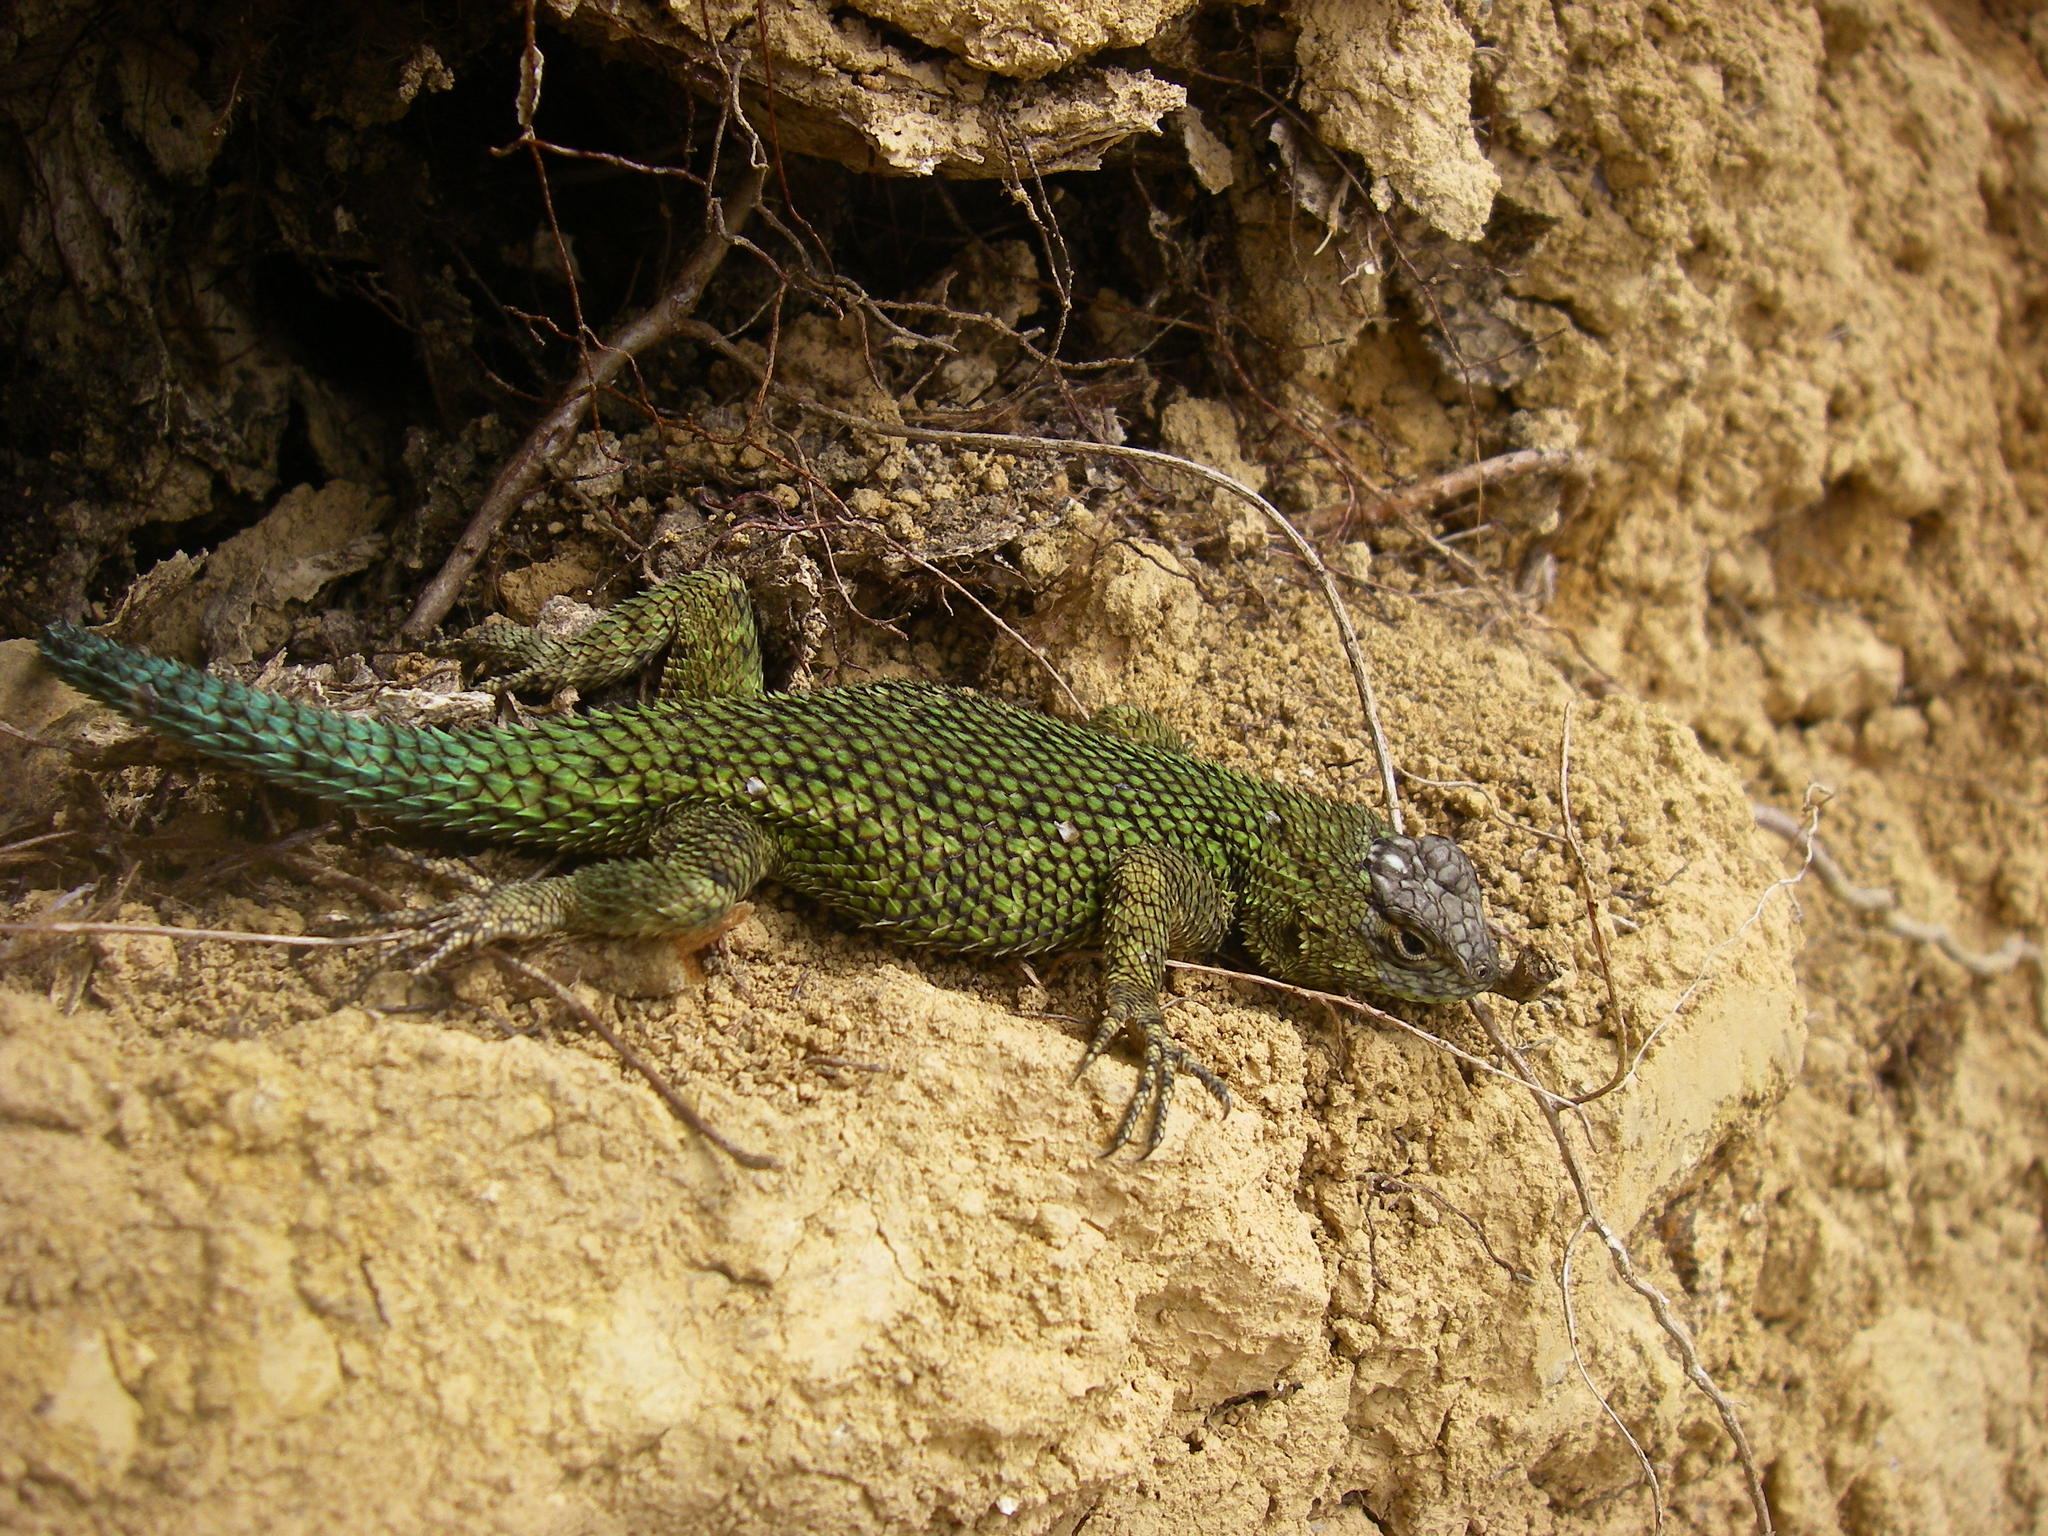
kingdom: Animalia
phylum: Chordata
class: Squamata
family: Phrynosomatidae
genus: Sceloporus
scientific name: Sceloporus malachiticus
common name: Green spiny lizard
